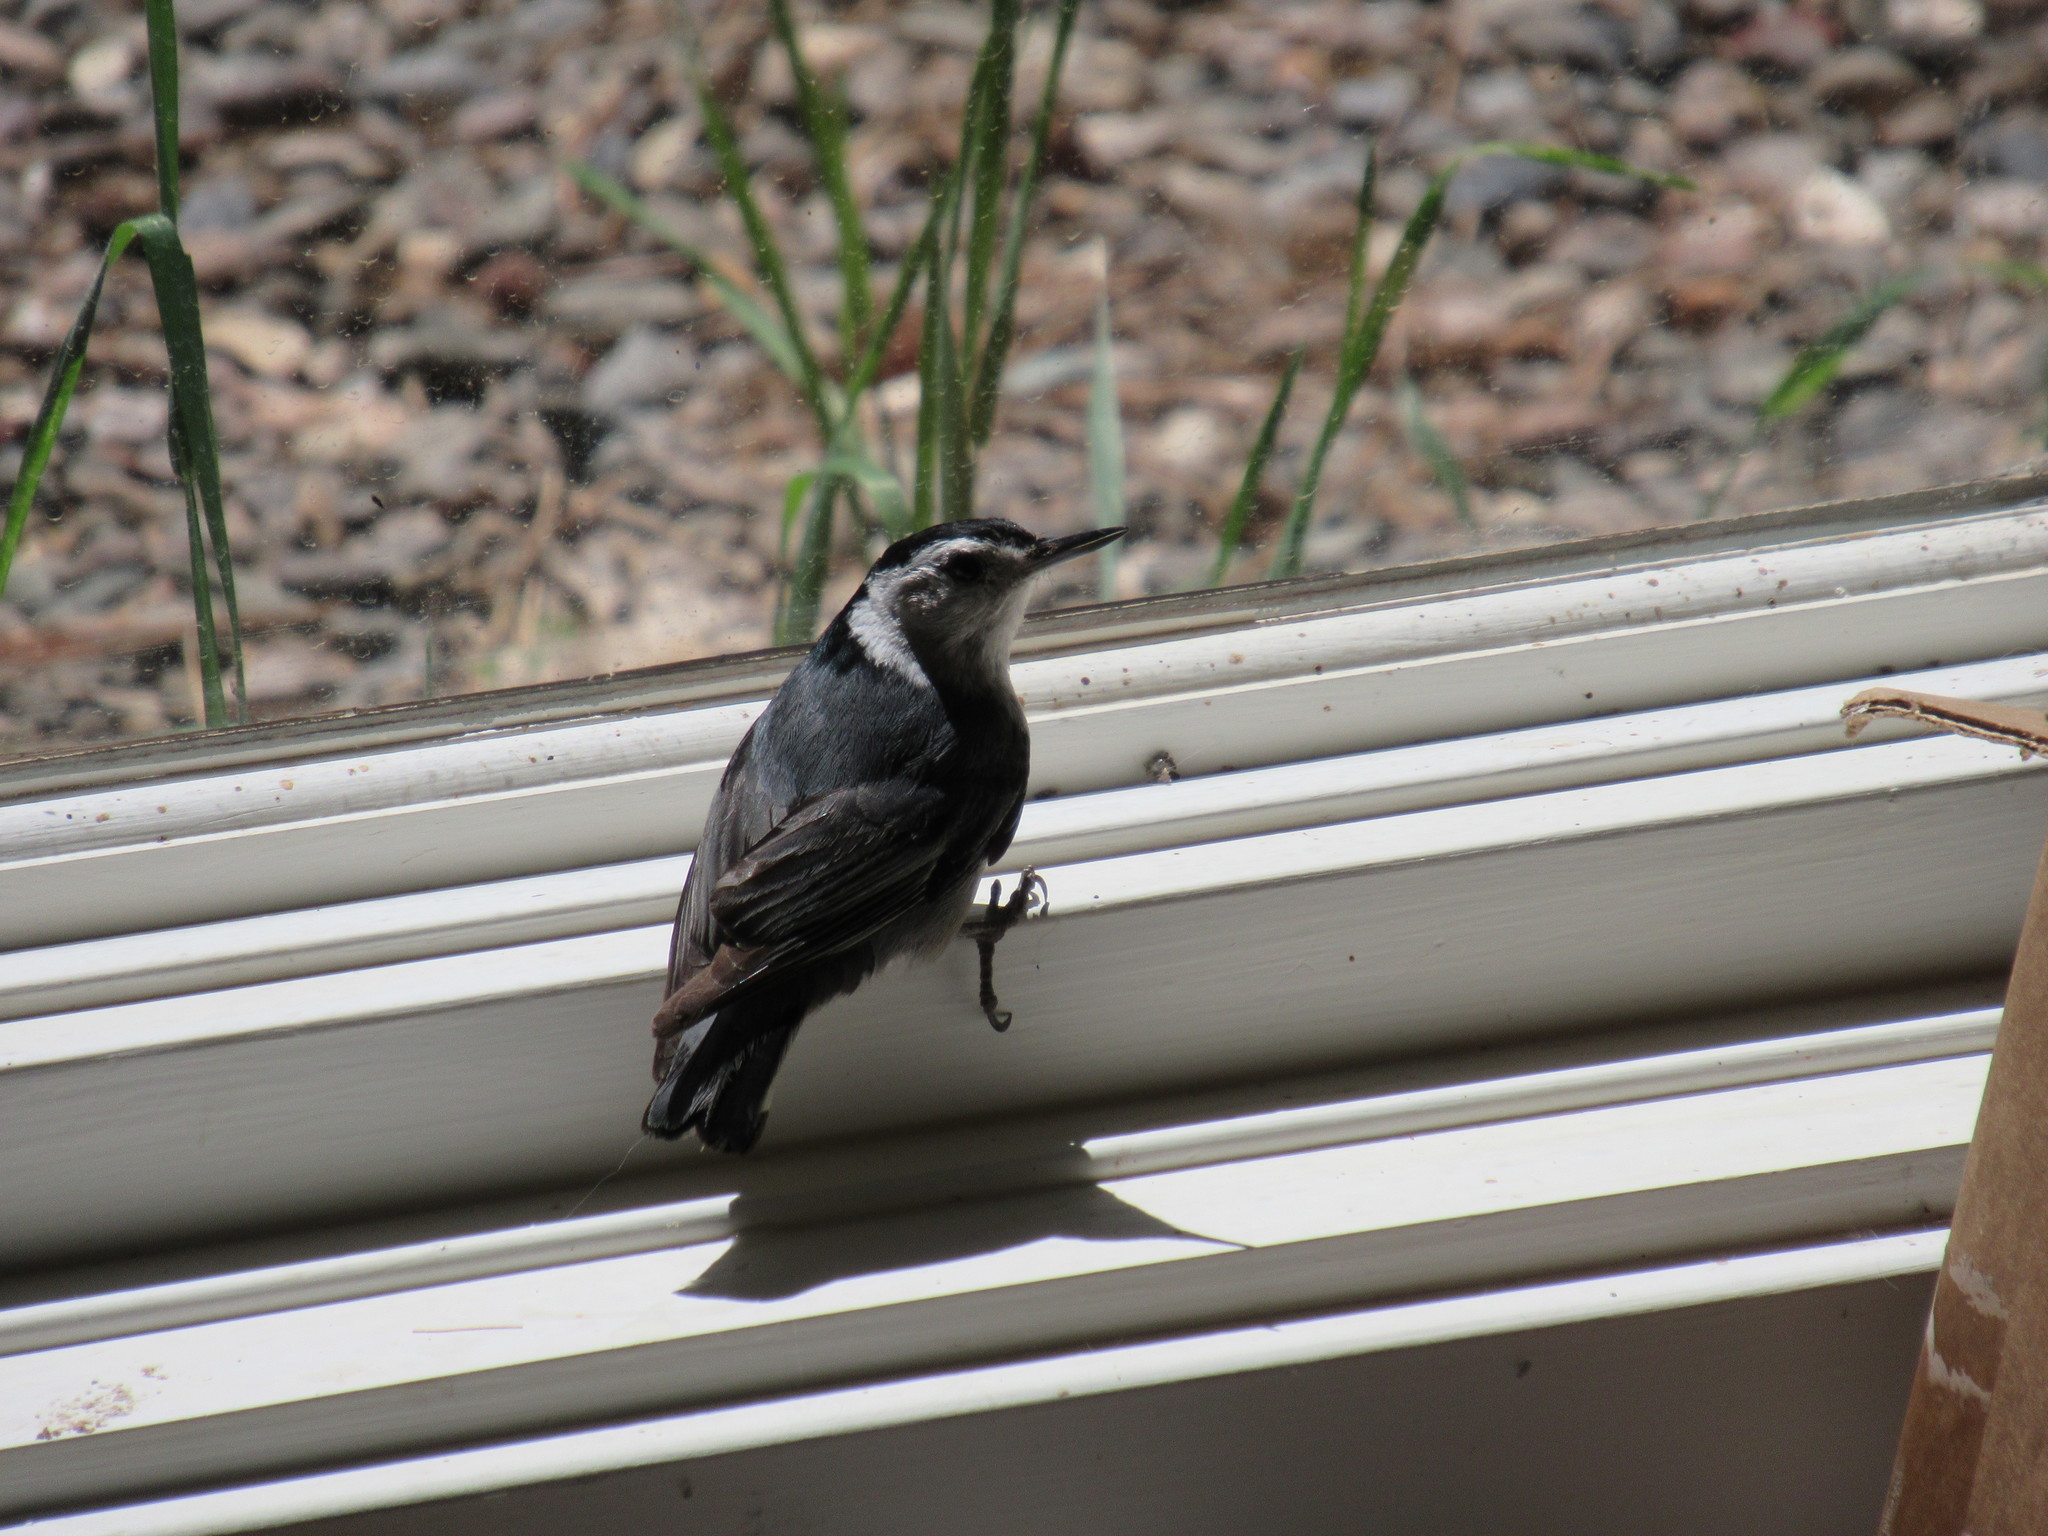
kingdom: Animalia
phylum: Chordata
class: Aves
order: Passeriformes
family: Sittidae
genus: Sitta
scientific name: Sitta carolinensis
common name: White-breasted nuthatch
